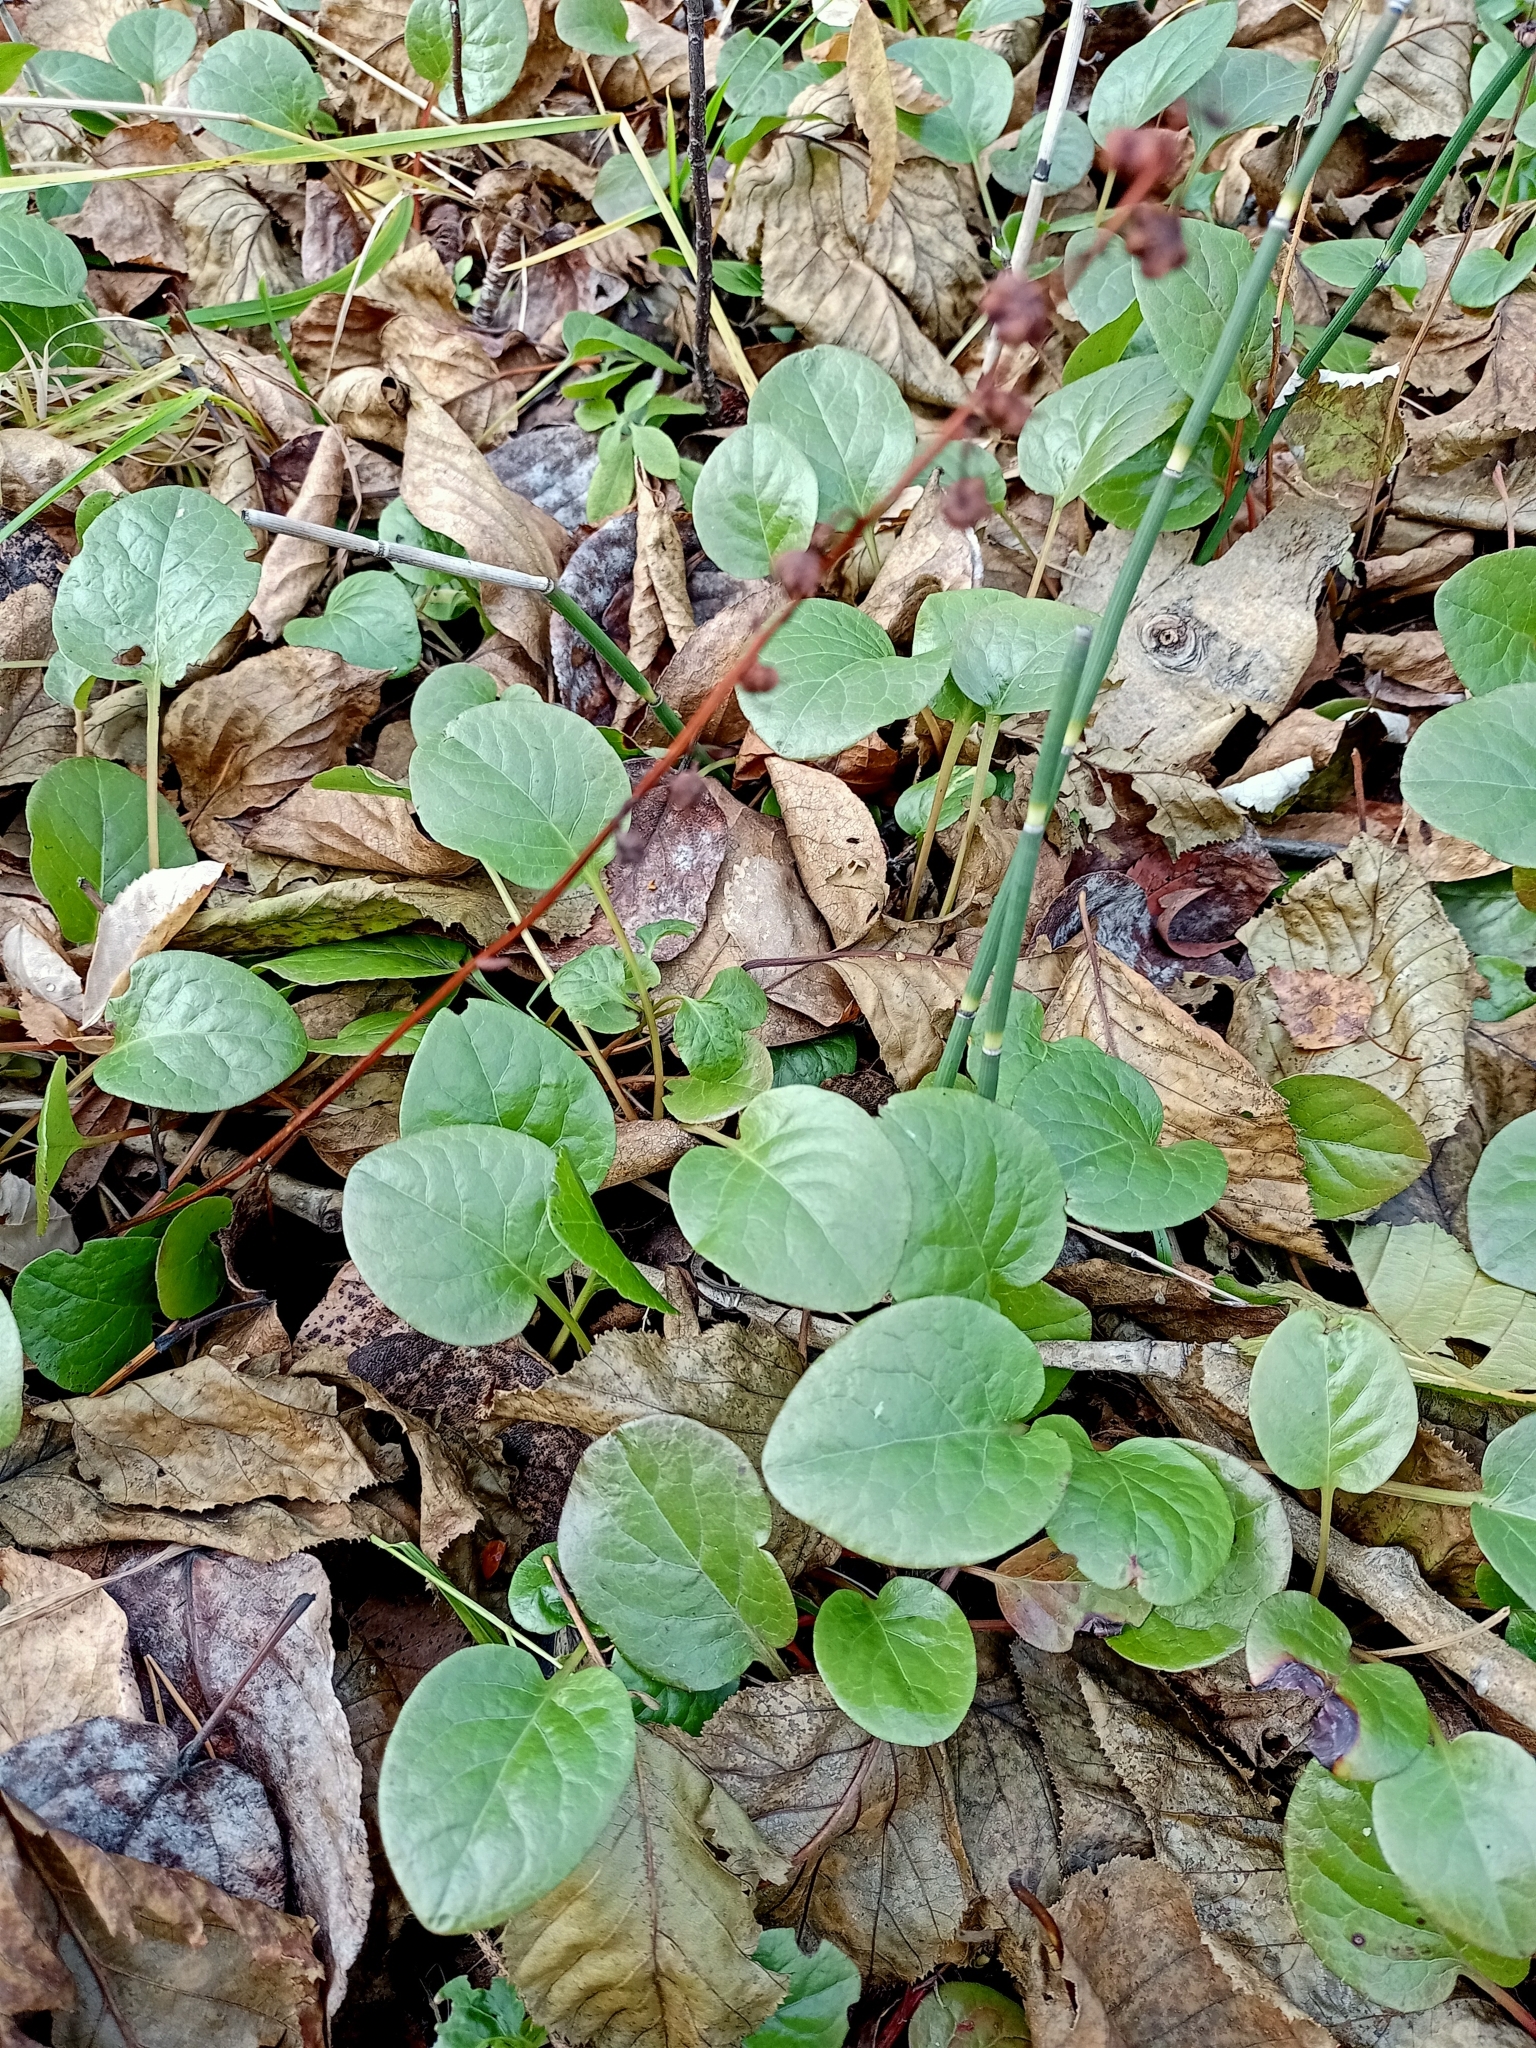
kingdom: Plantae
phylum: Tracheophyta
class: Magnoliopsida
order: Ericales
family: Ericaceae
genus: Pyrola
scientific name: Pyrola asarifolia
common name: Bog wintergreen
